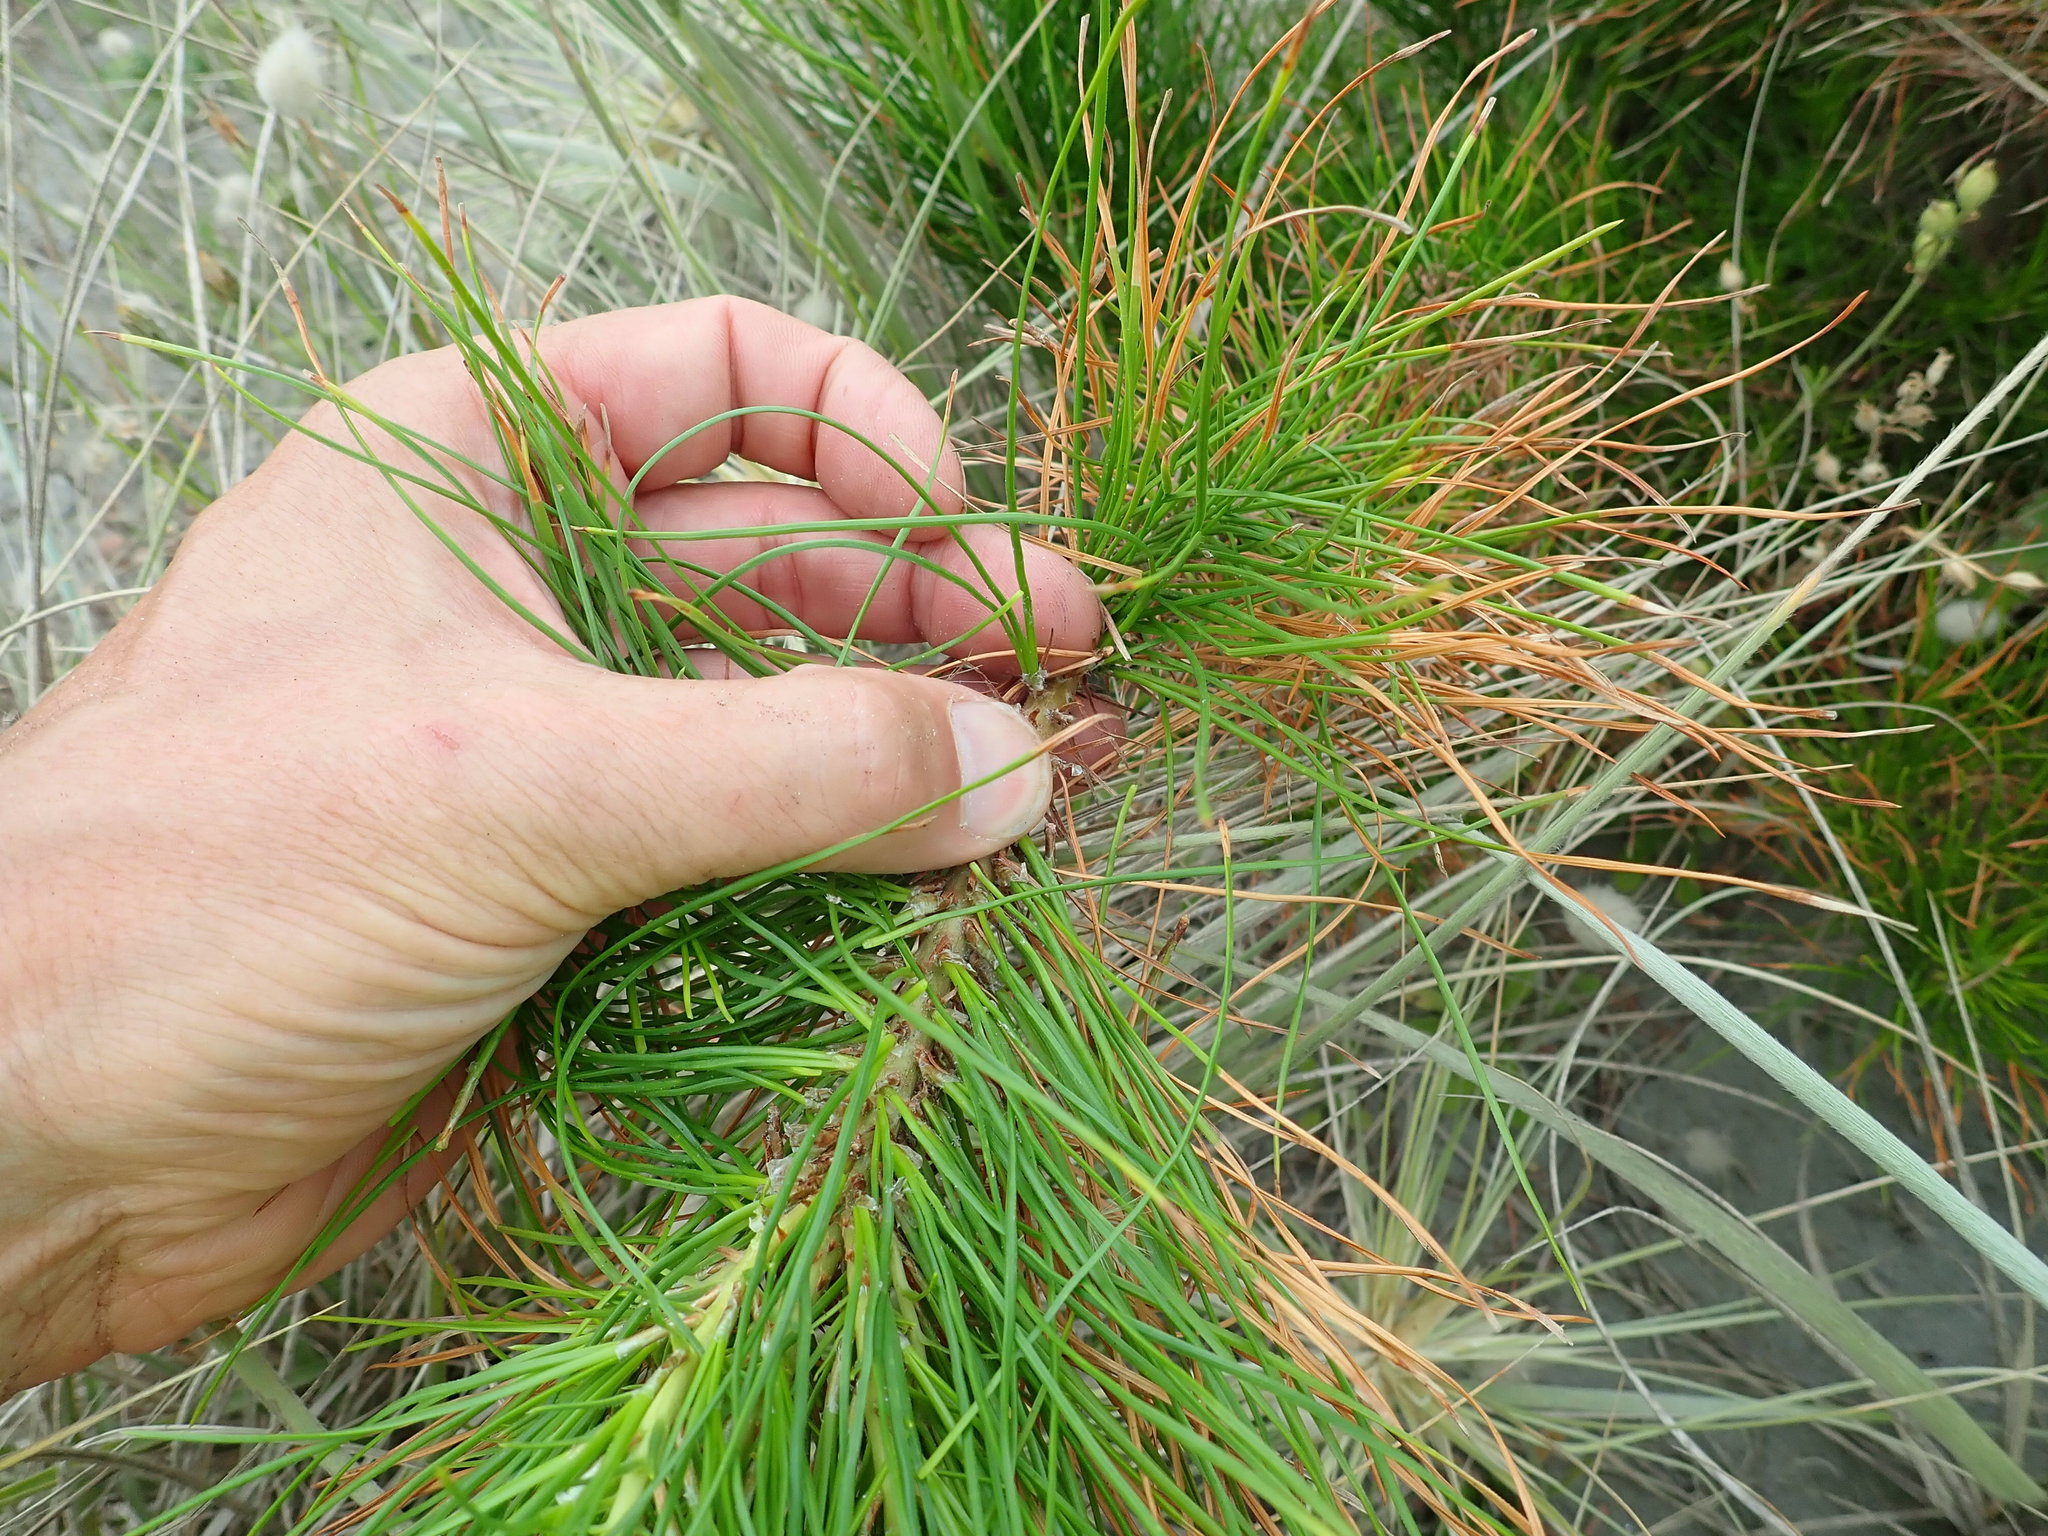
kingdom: Plantae
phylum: Tracheophyta
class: Pinopsida
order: Pinales
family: Pinaceae
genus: Pinus
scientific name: Pinus radiata
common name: Monterey pine
